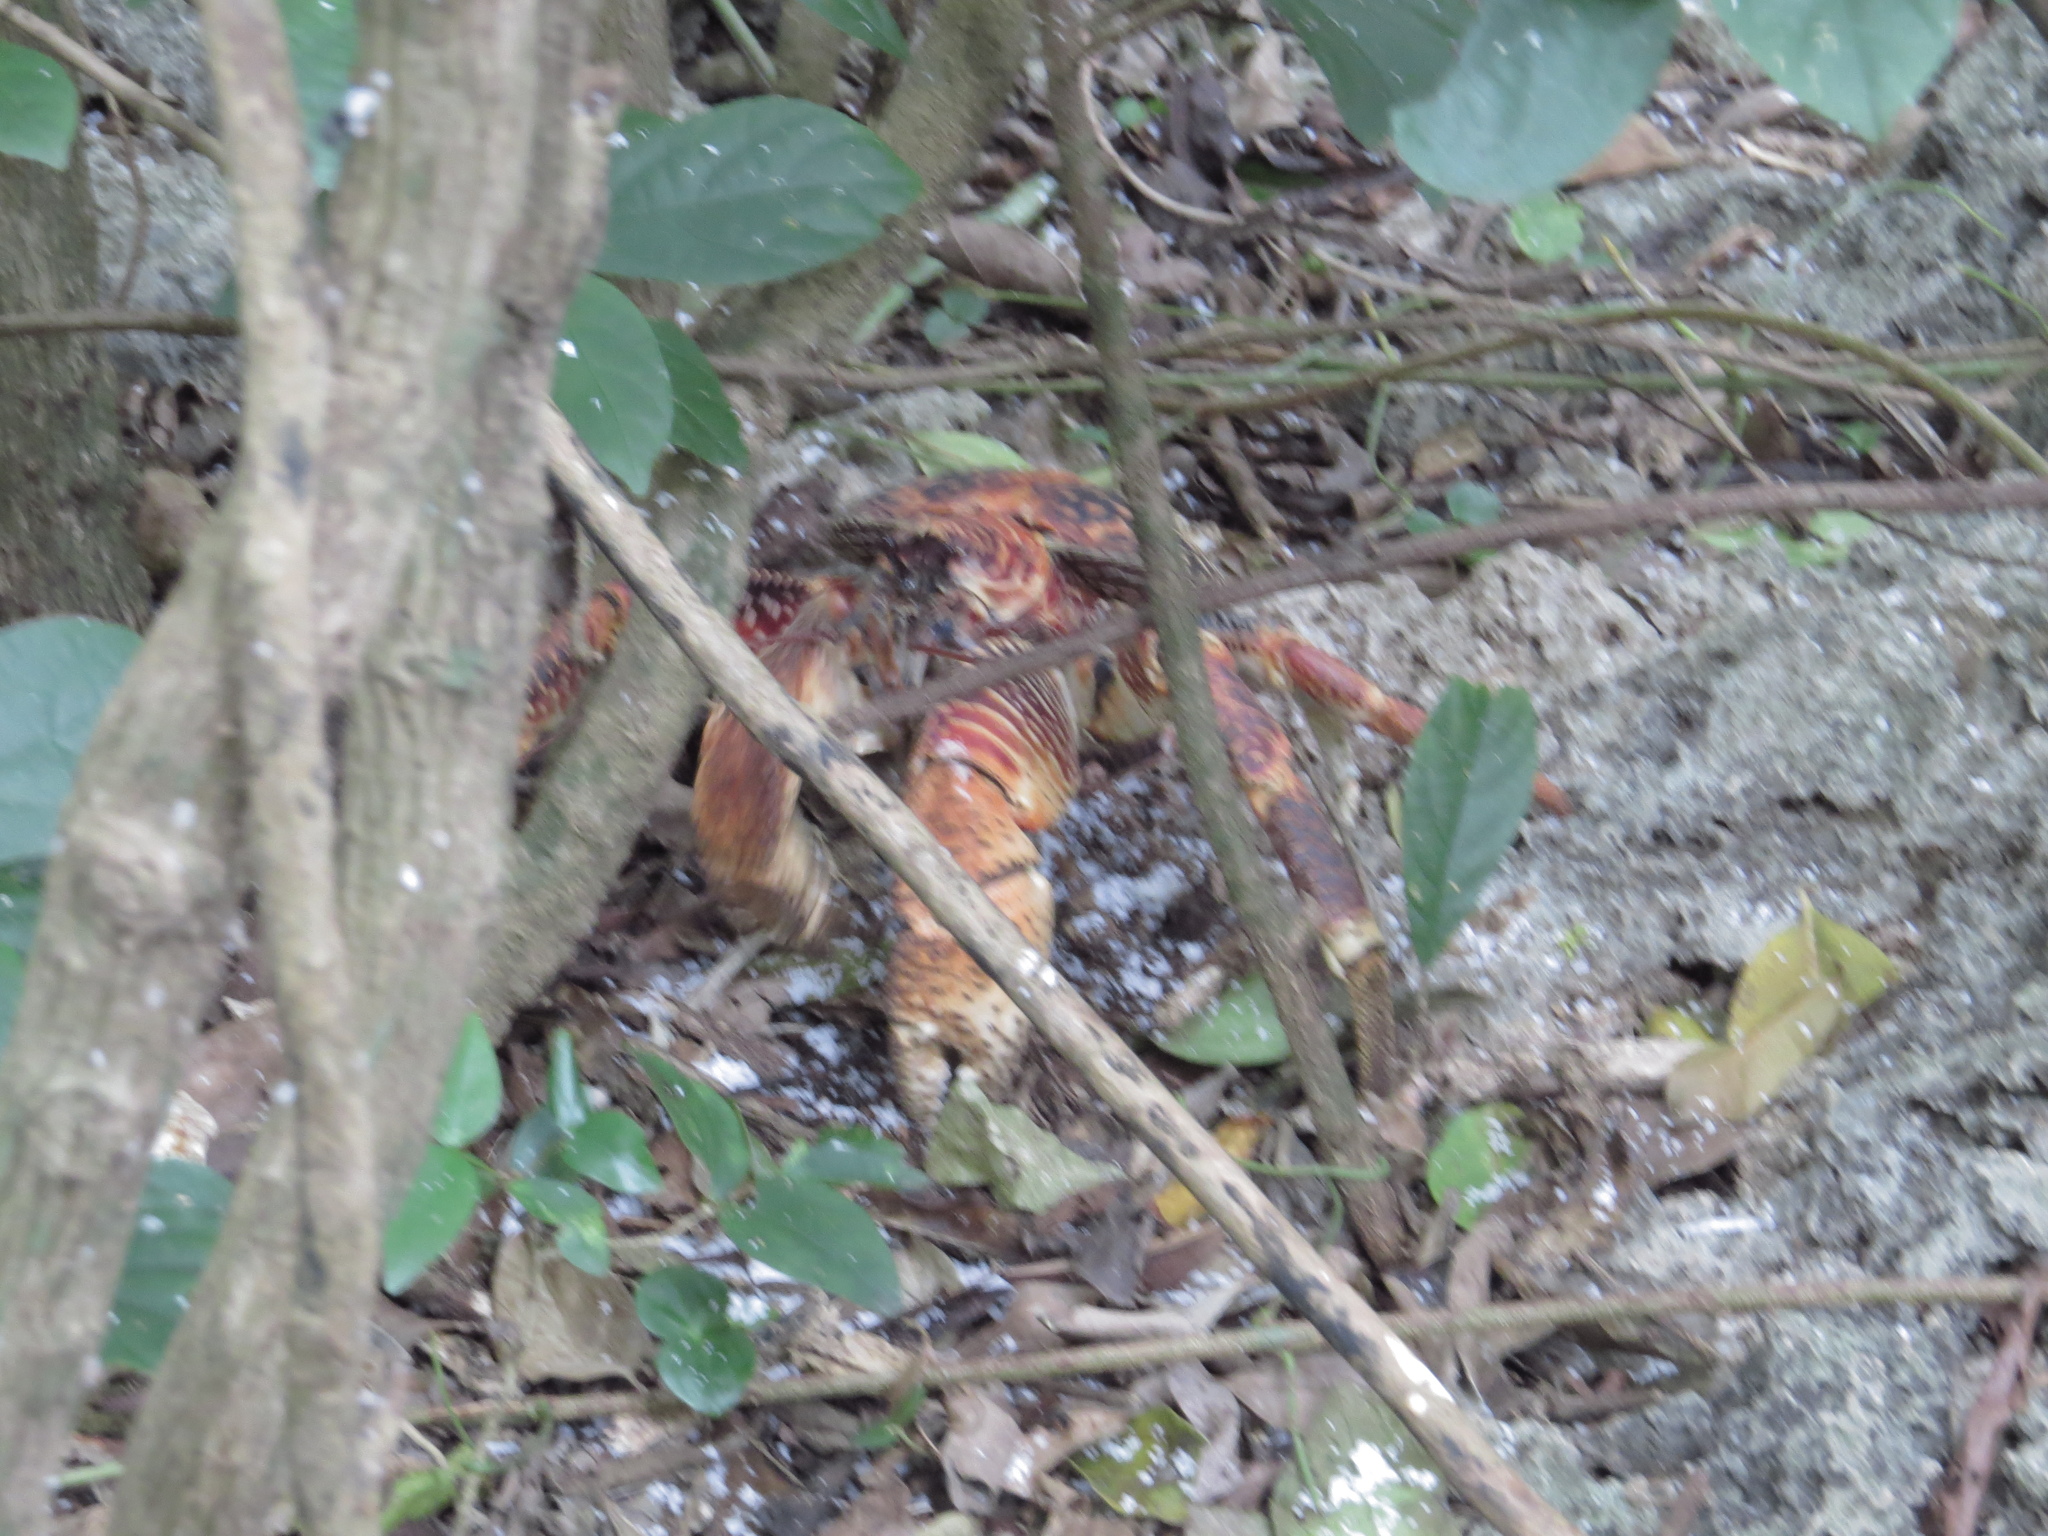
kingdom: Animalia
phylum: Arthropoda
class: Malacostraca
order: Decapoda
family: Coenobitidae
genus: Birgus
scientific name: Birgus latro
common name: Coconut crab
